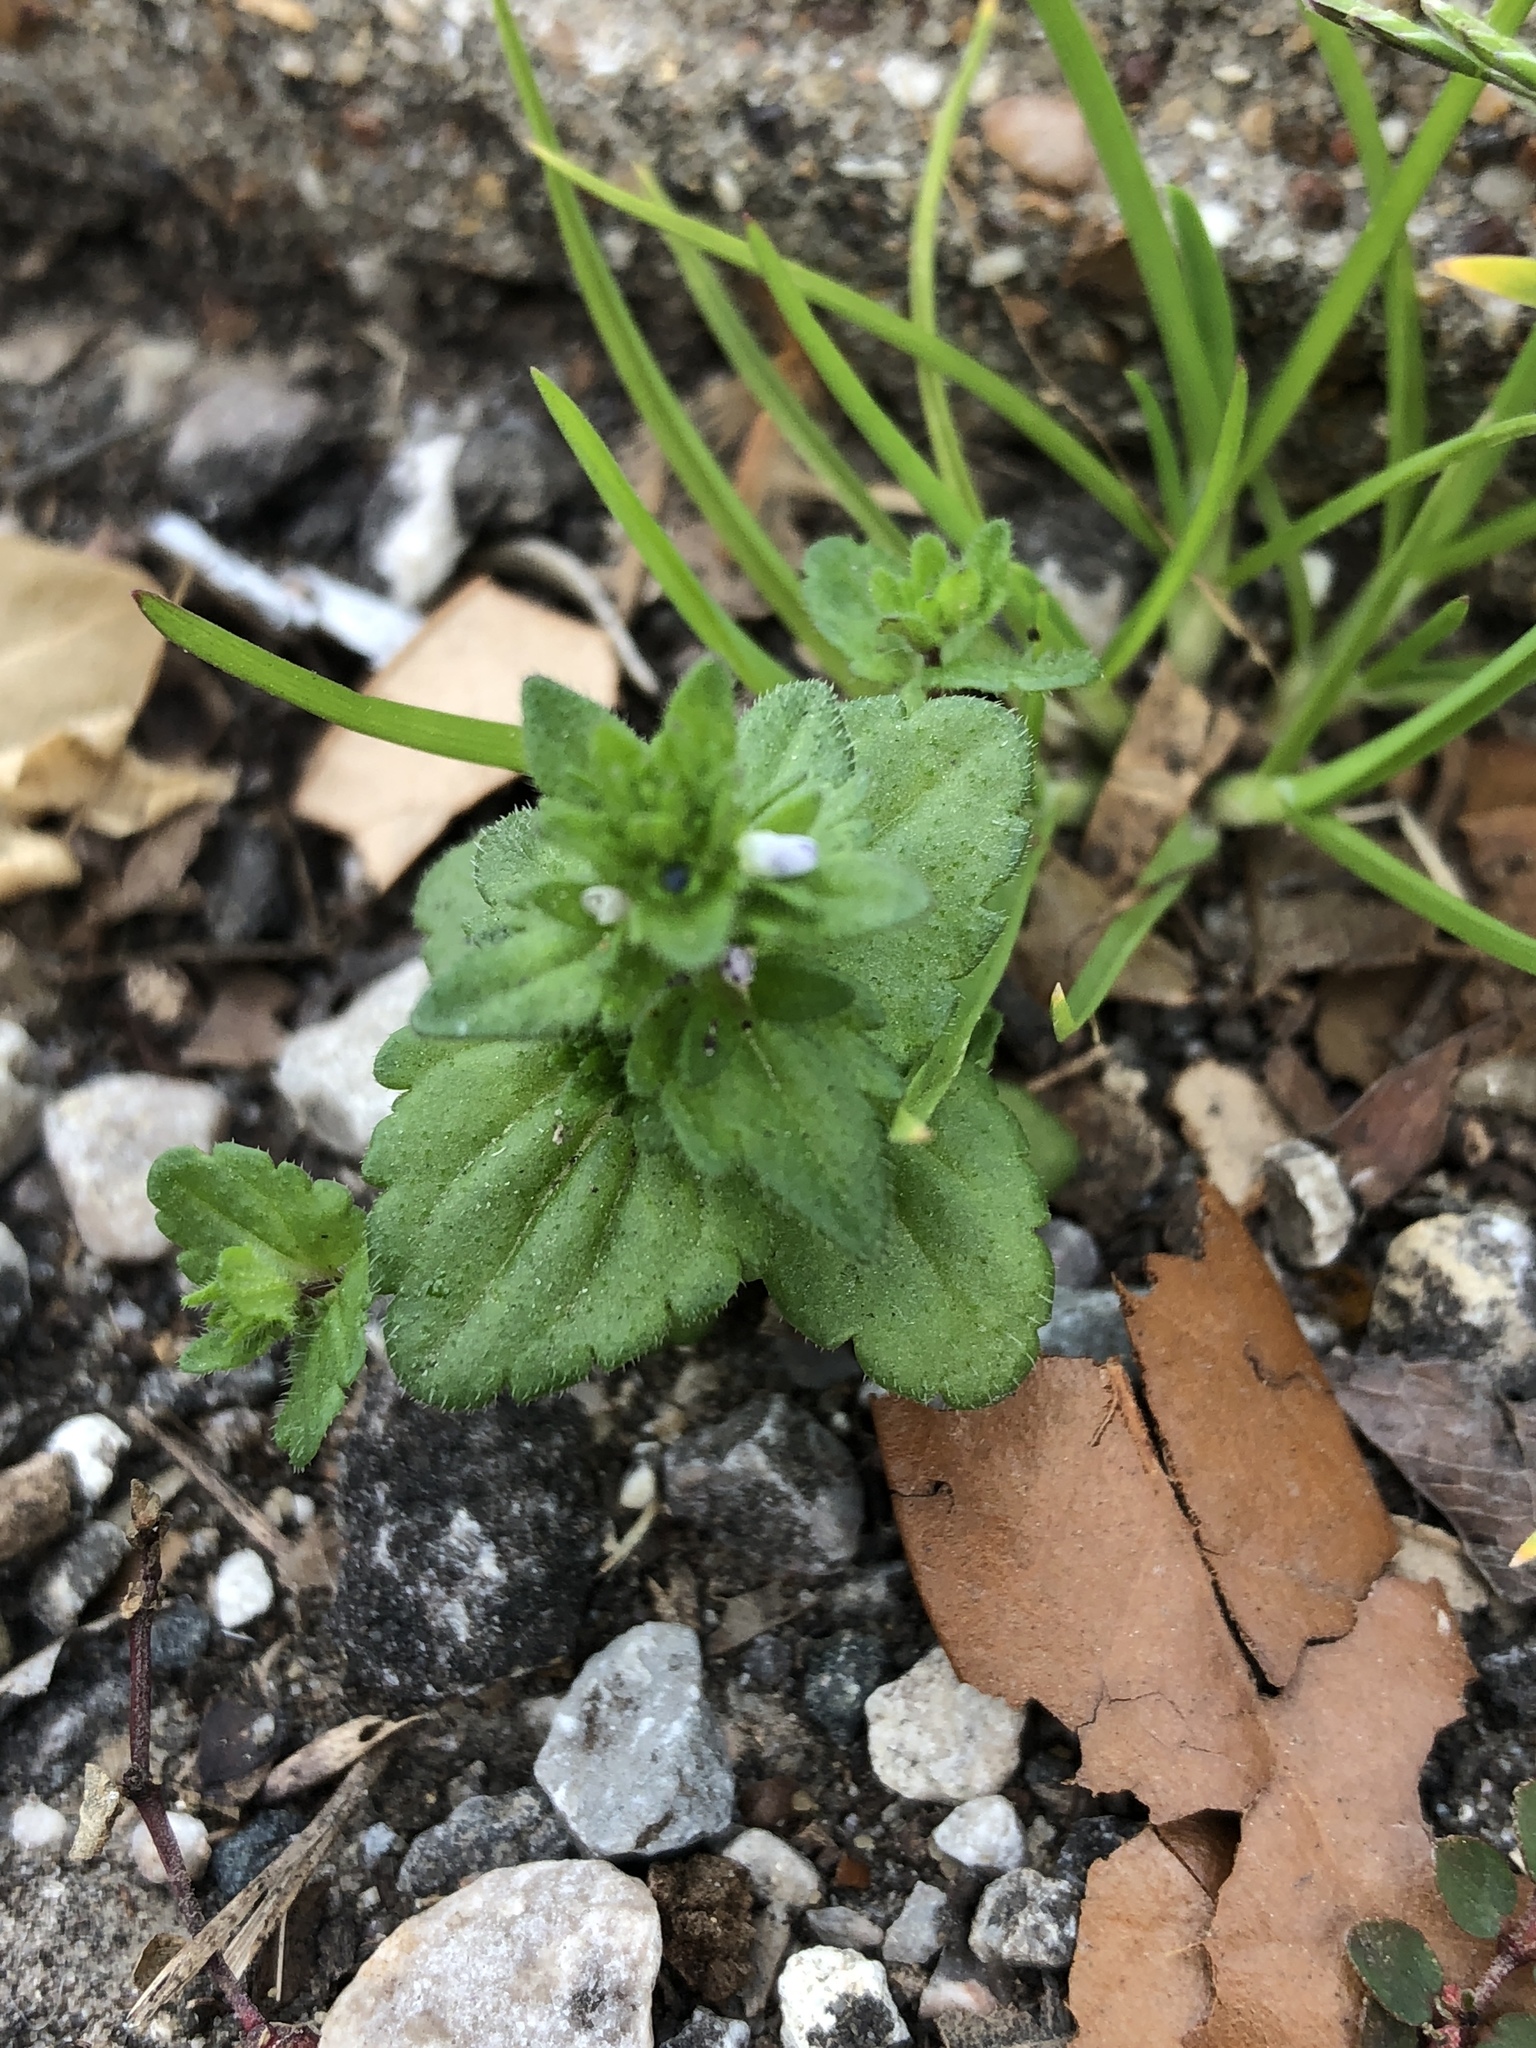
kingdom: Plantae
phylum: Tracheophyta
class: Magnoliopsida
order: Lamiales
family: Plantaginaceae
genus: Veronica
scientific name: Veronica arvensis
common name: Corn speedwell
